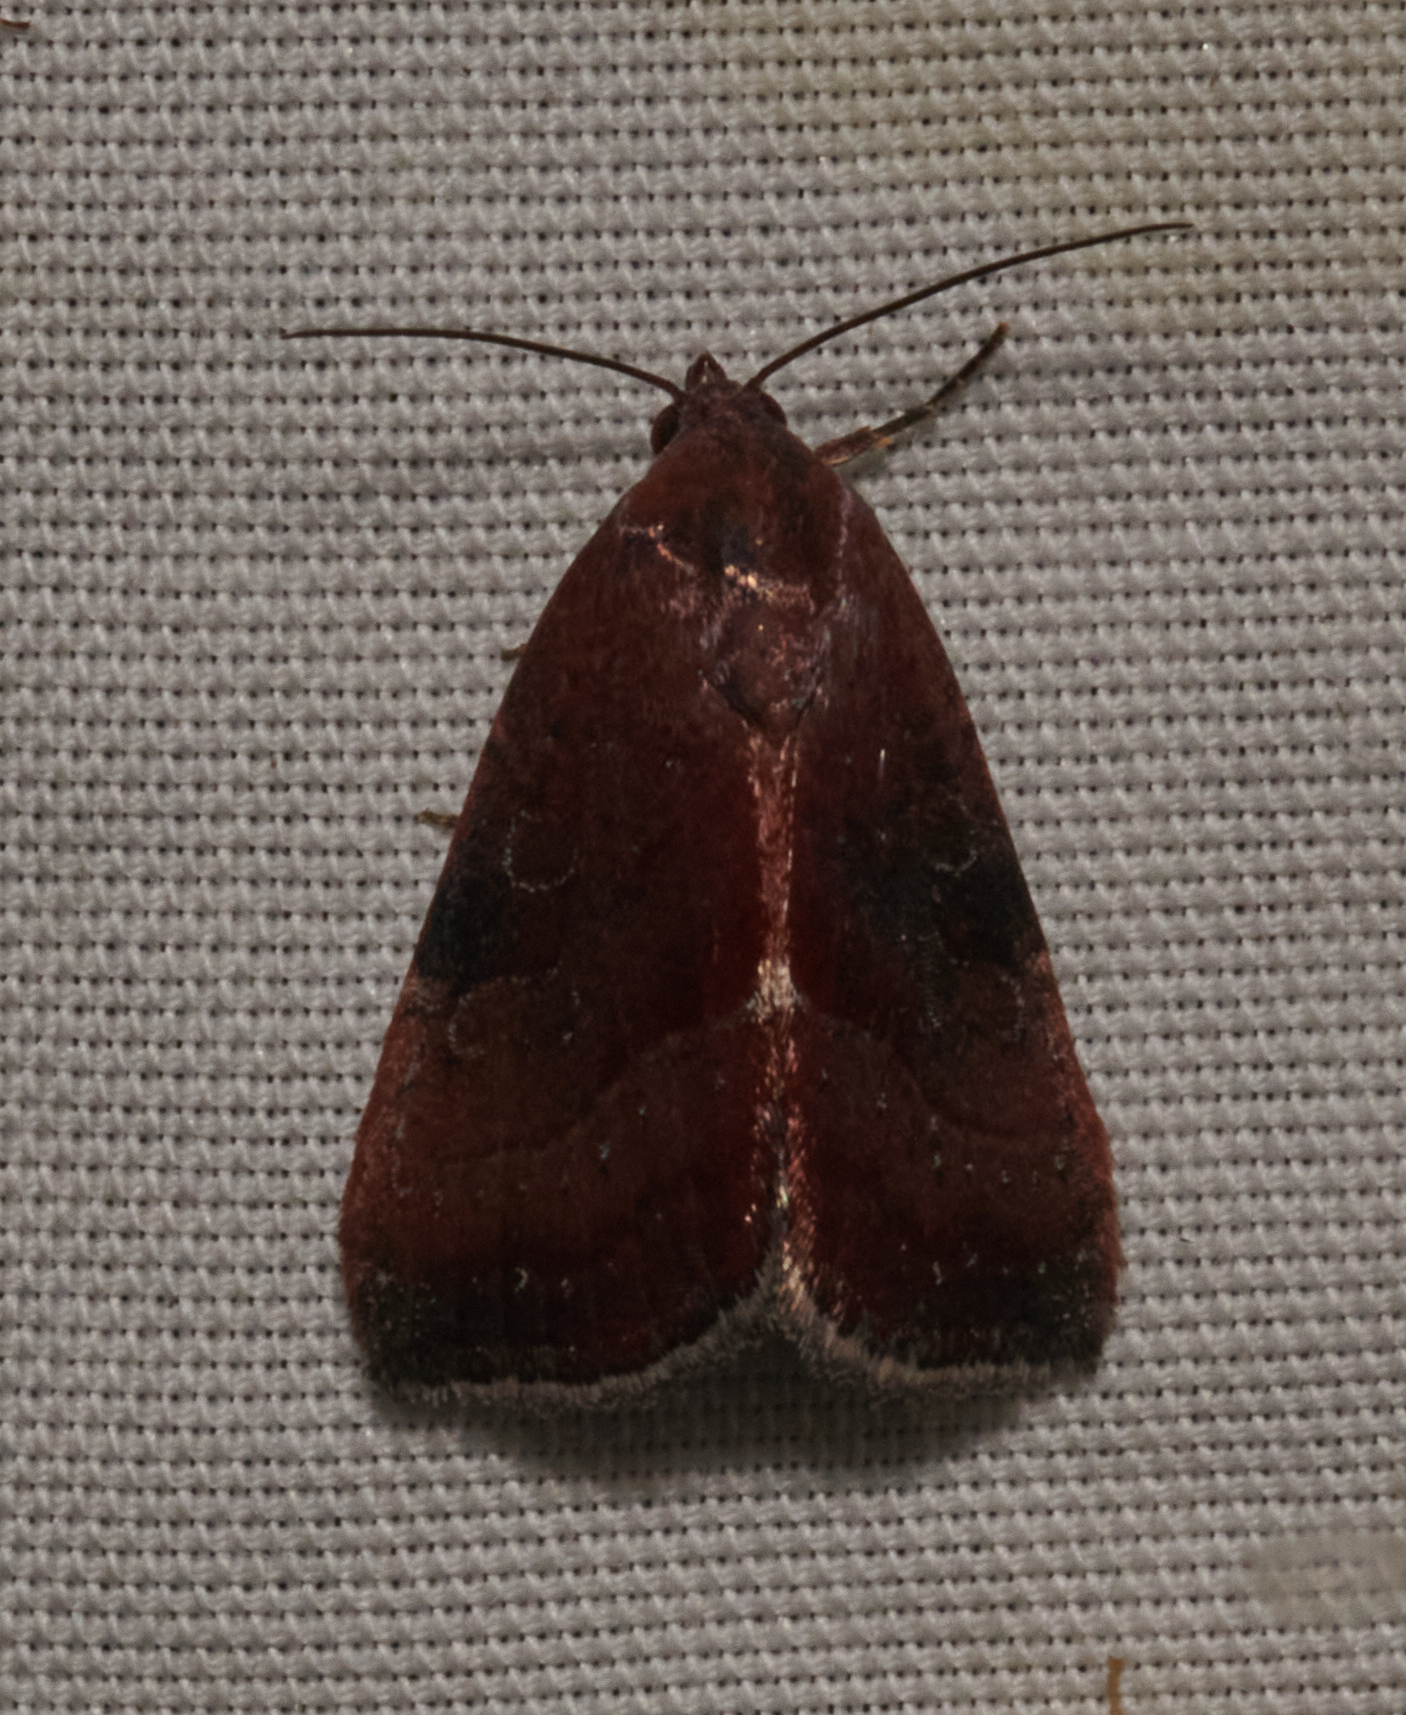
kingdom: Animalia
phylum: Arthropoda
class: Insecta
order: Lepidoptera
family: Noctuidae
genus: Galgula
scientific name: Galgula partita
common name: Wedgeling
